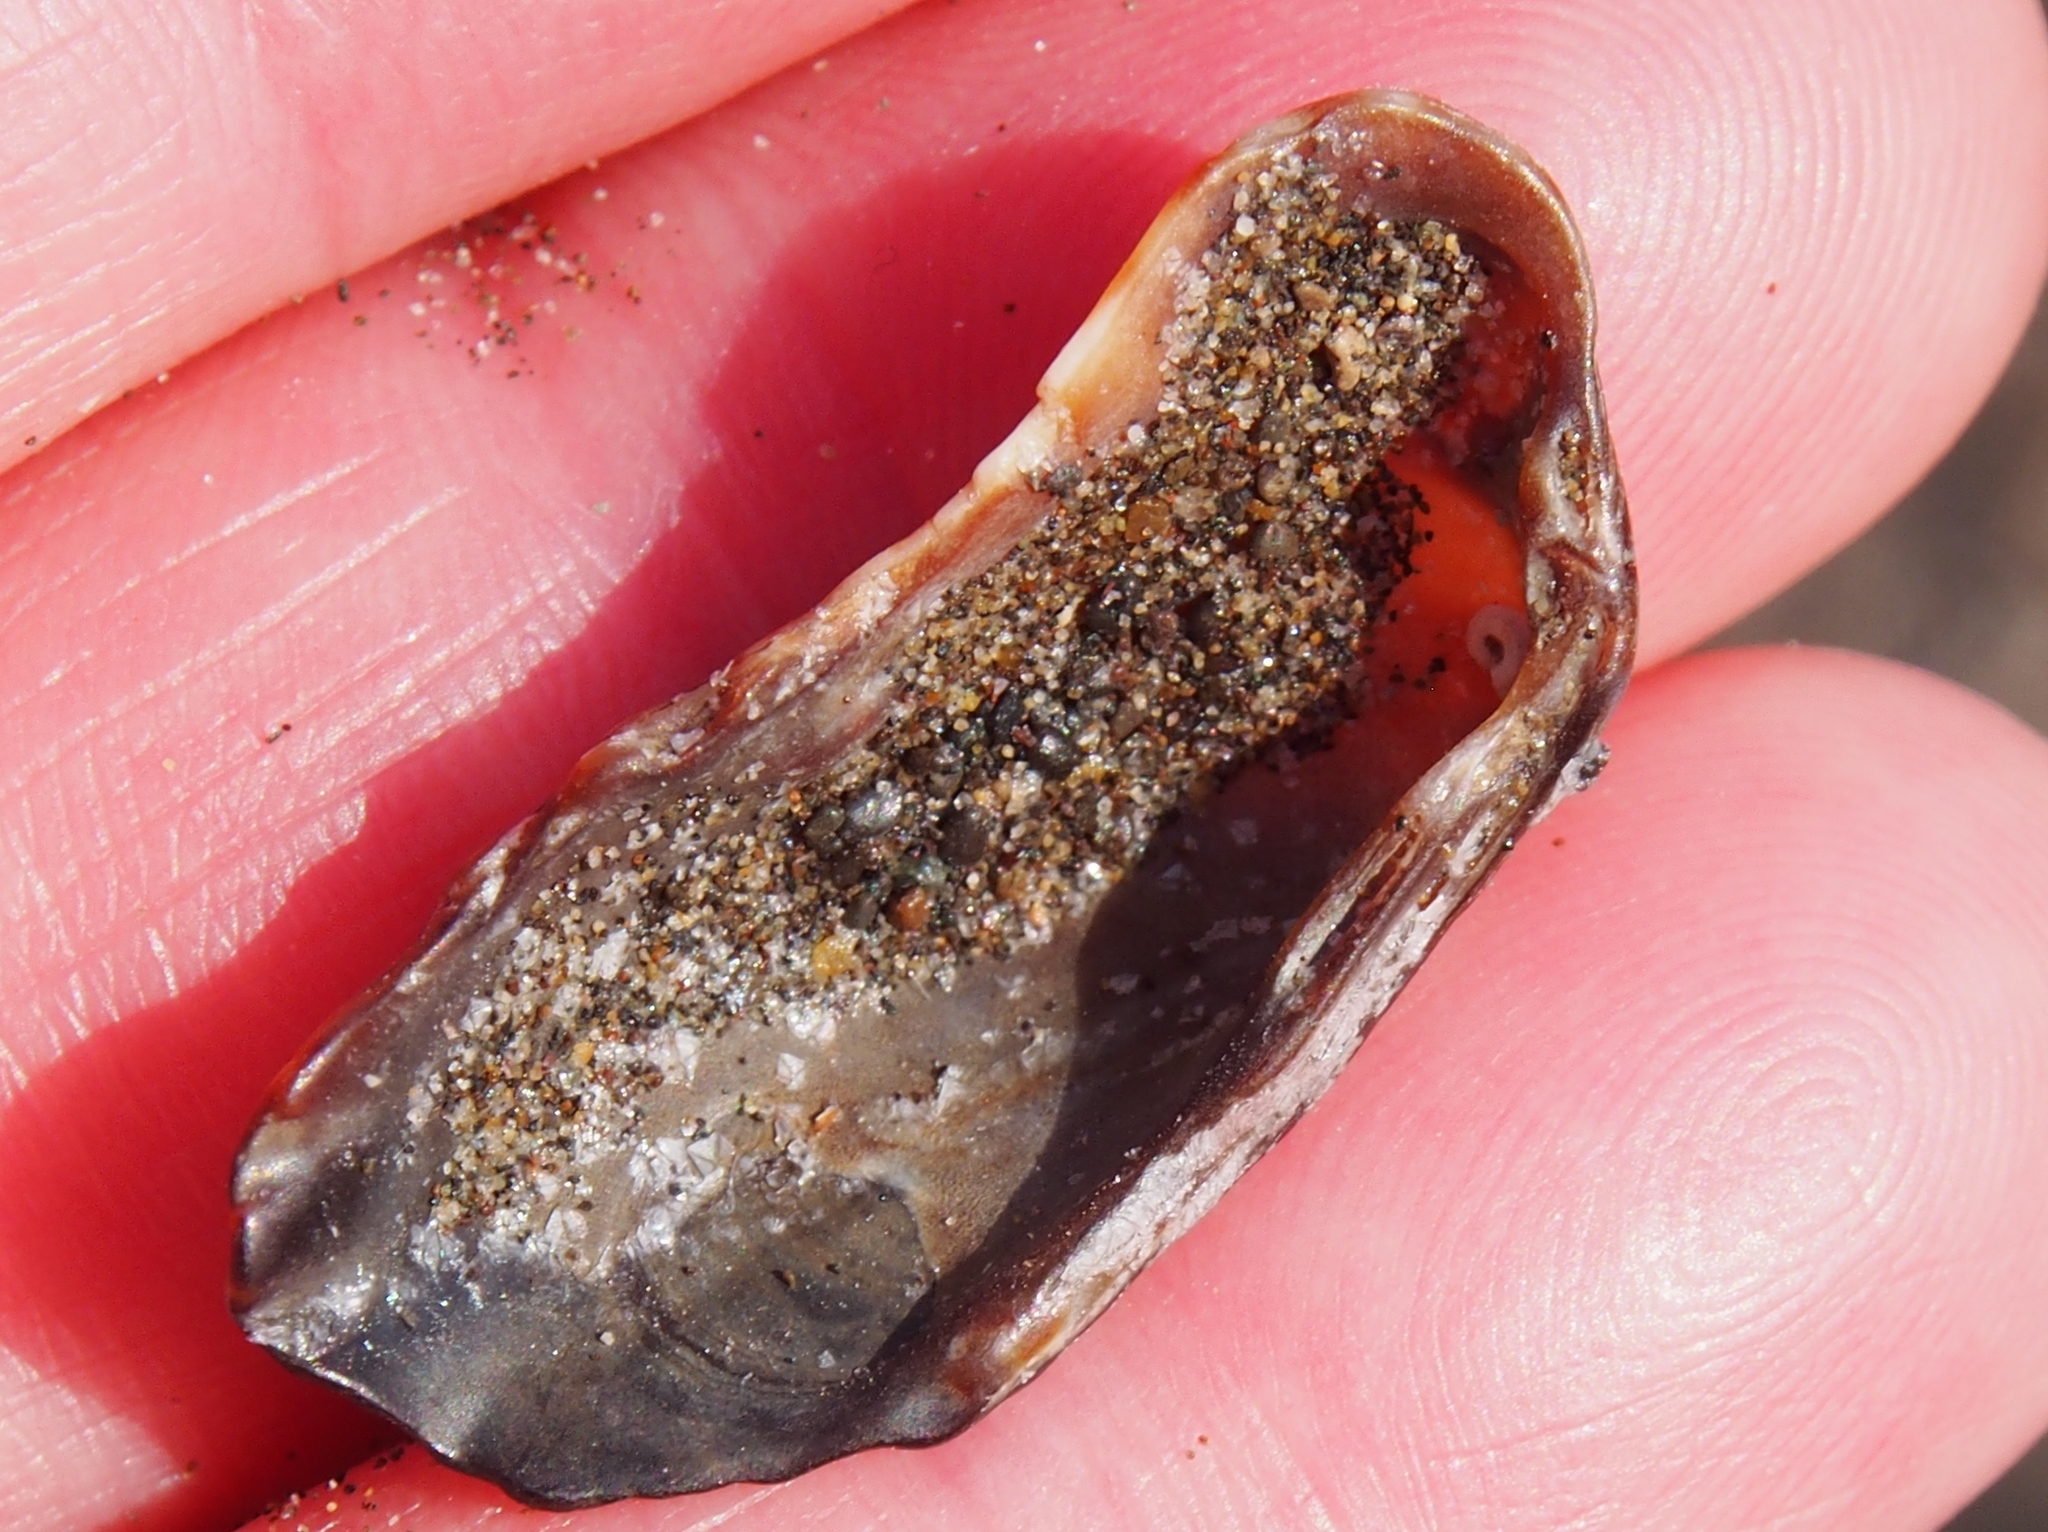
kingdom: Animalia
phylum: Mollusca
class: Bivalvia
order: Carditida
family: Carditidae
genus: Carditamera
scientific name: Carditamera affinis
